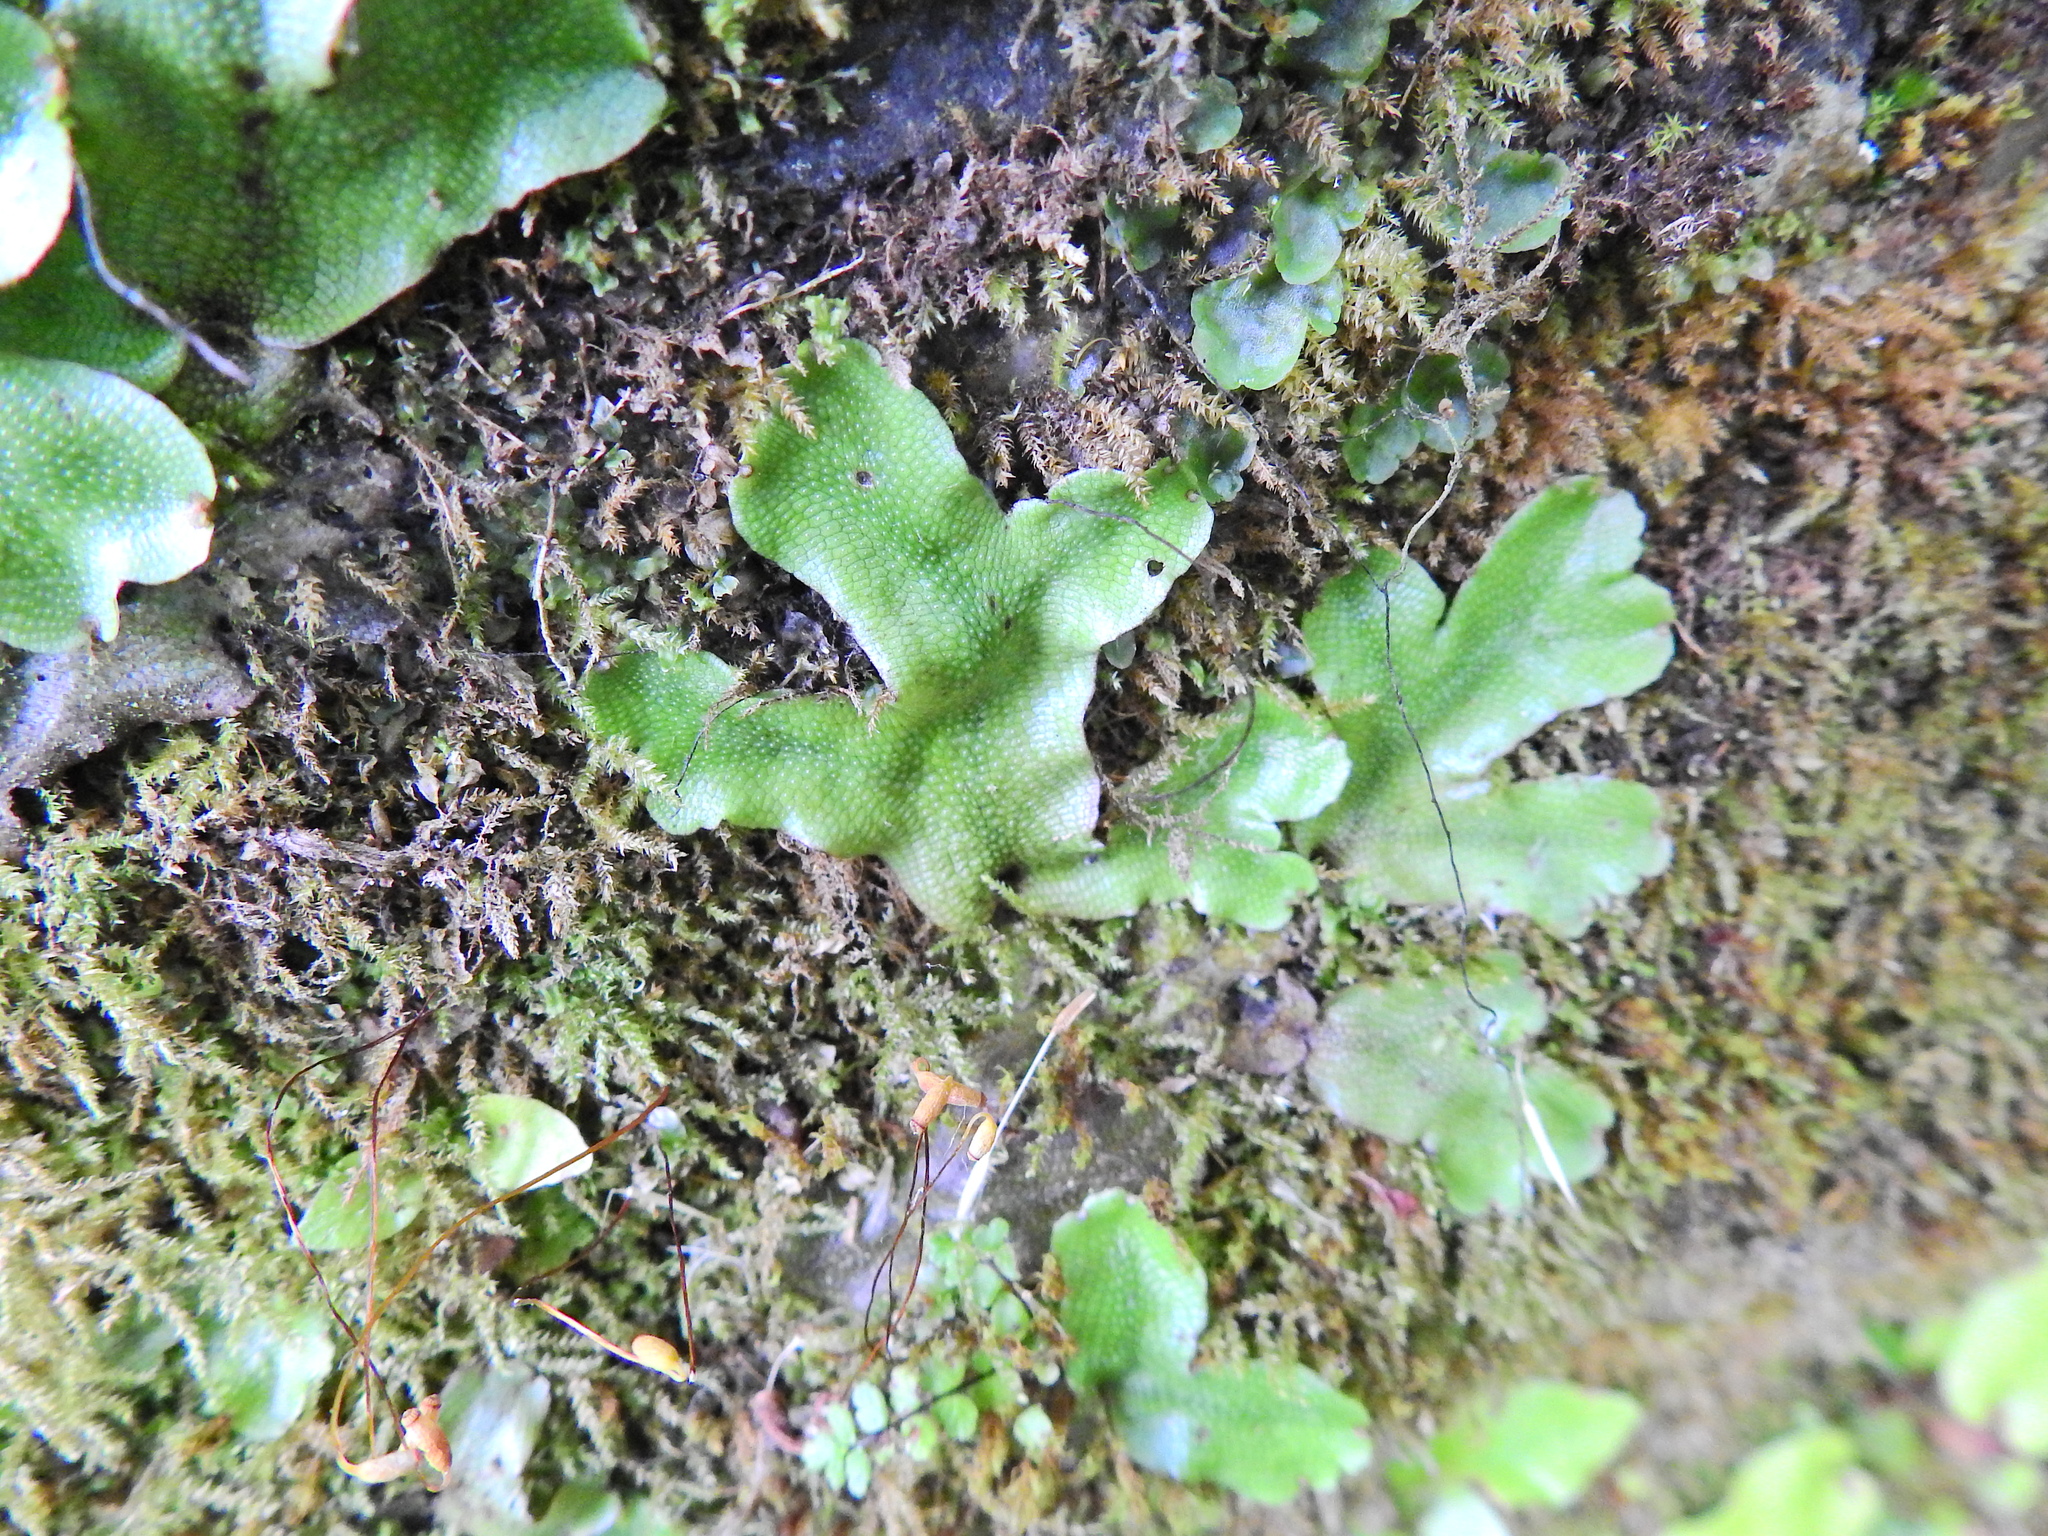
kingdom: Plantae
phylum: Marchantiophyta
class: Marchantiopsida
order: Marchantiales
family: Conocephalaceae
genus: Conocephalum
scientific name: Conocephalum conicum
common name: Great scented liverwort
